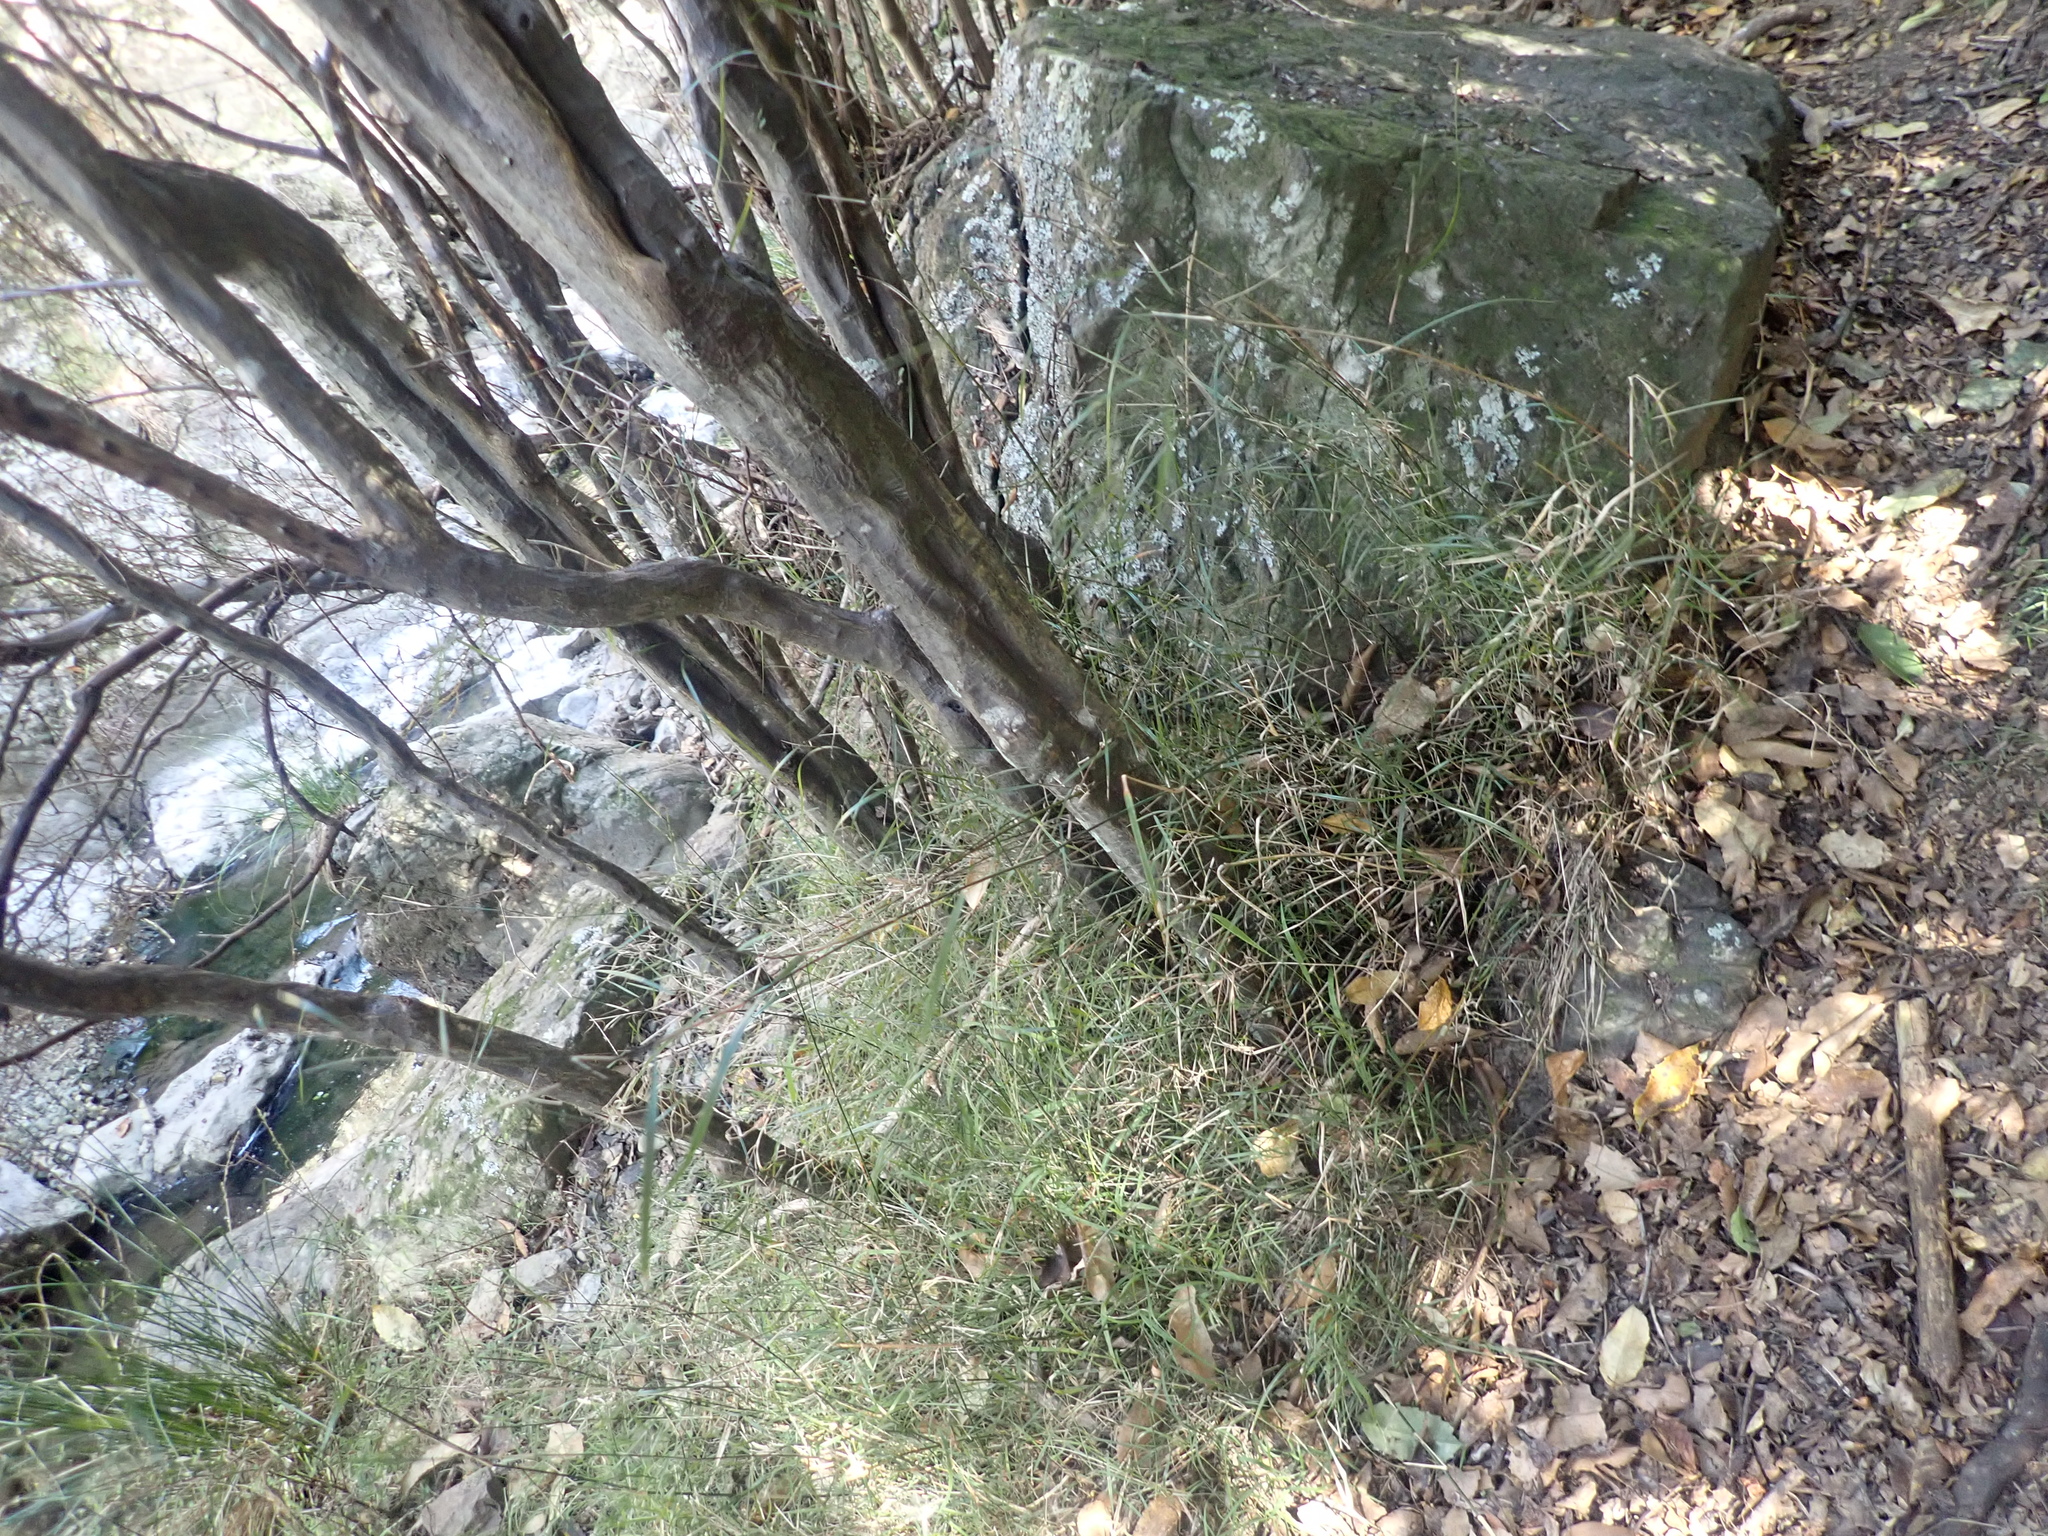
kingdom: Plantae
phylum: Tracheophyta
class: Liliopsida
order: Poales
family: Poaceae
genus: Microlaena
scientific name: Microlaena polynoda
